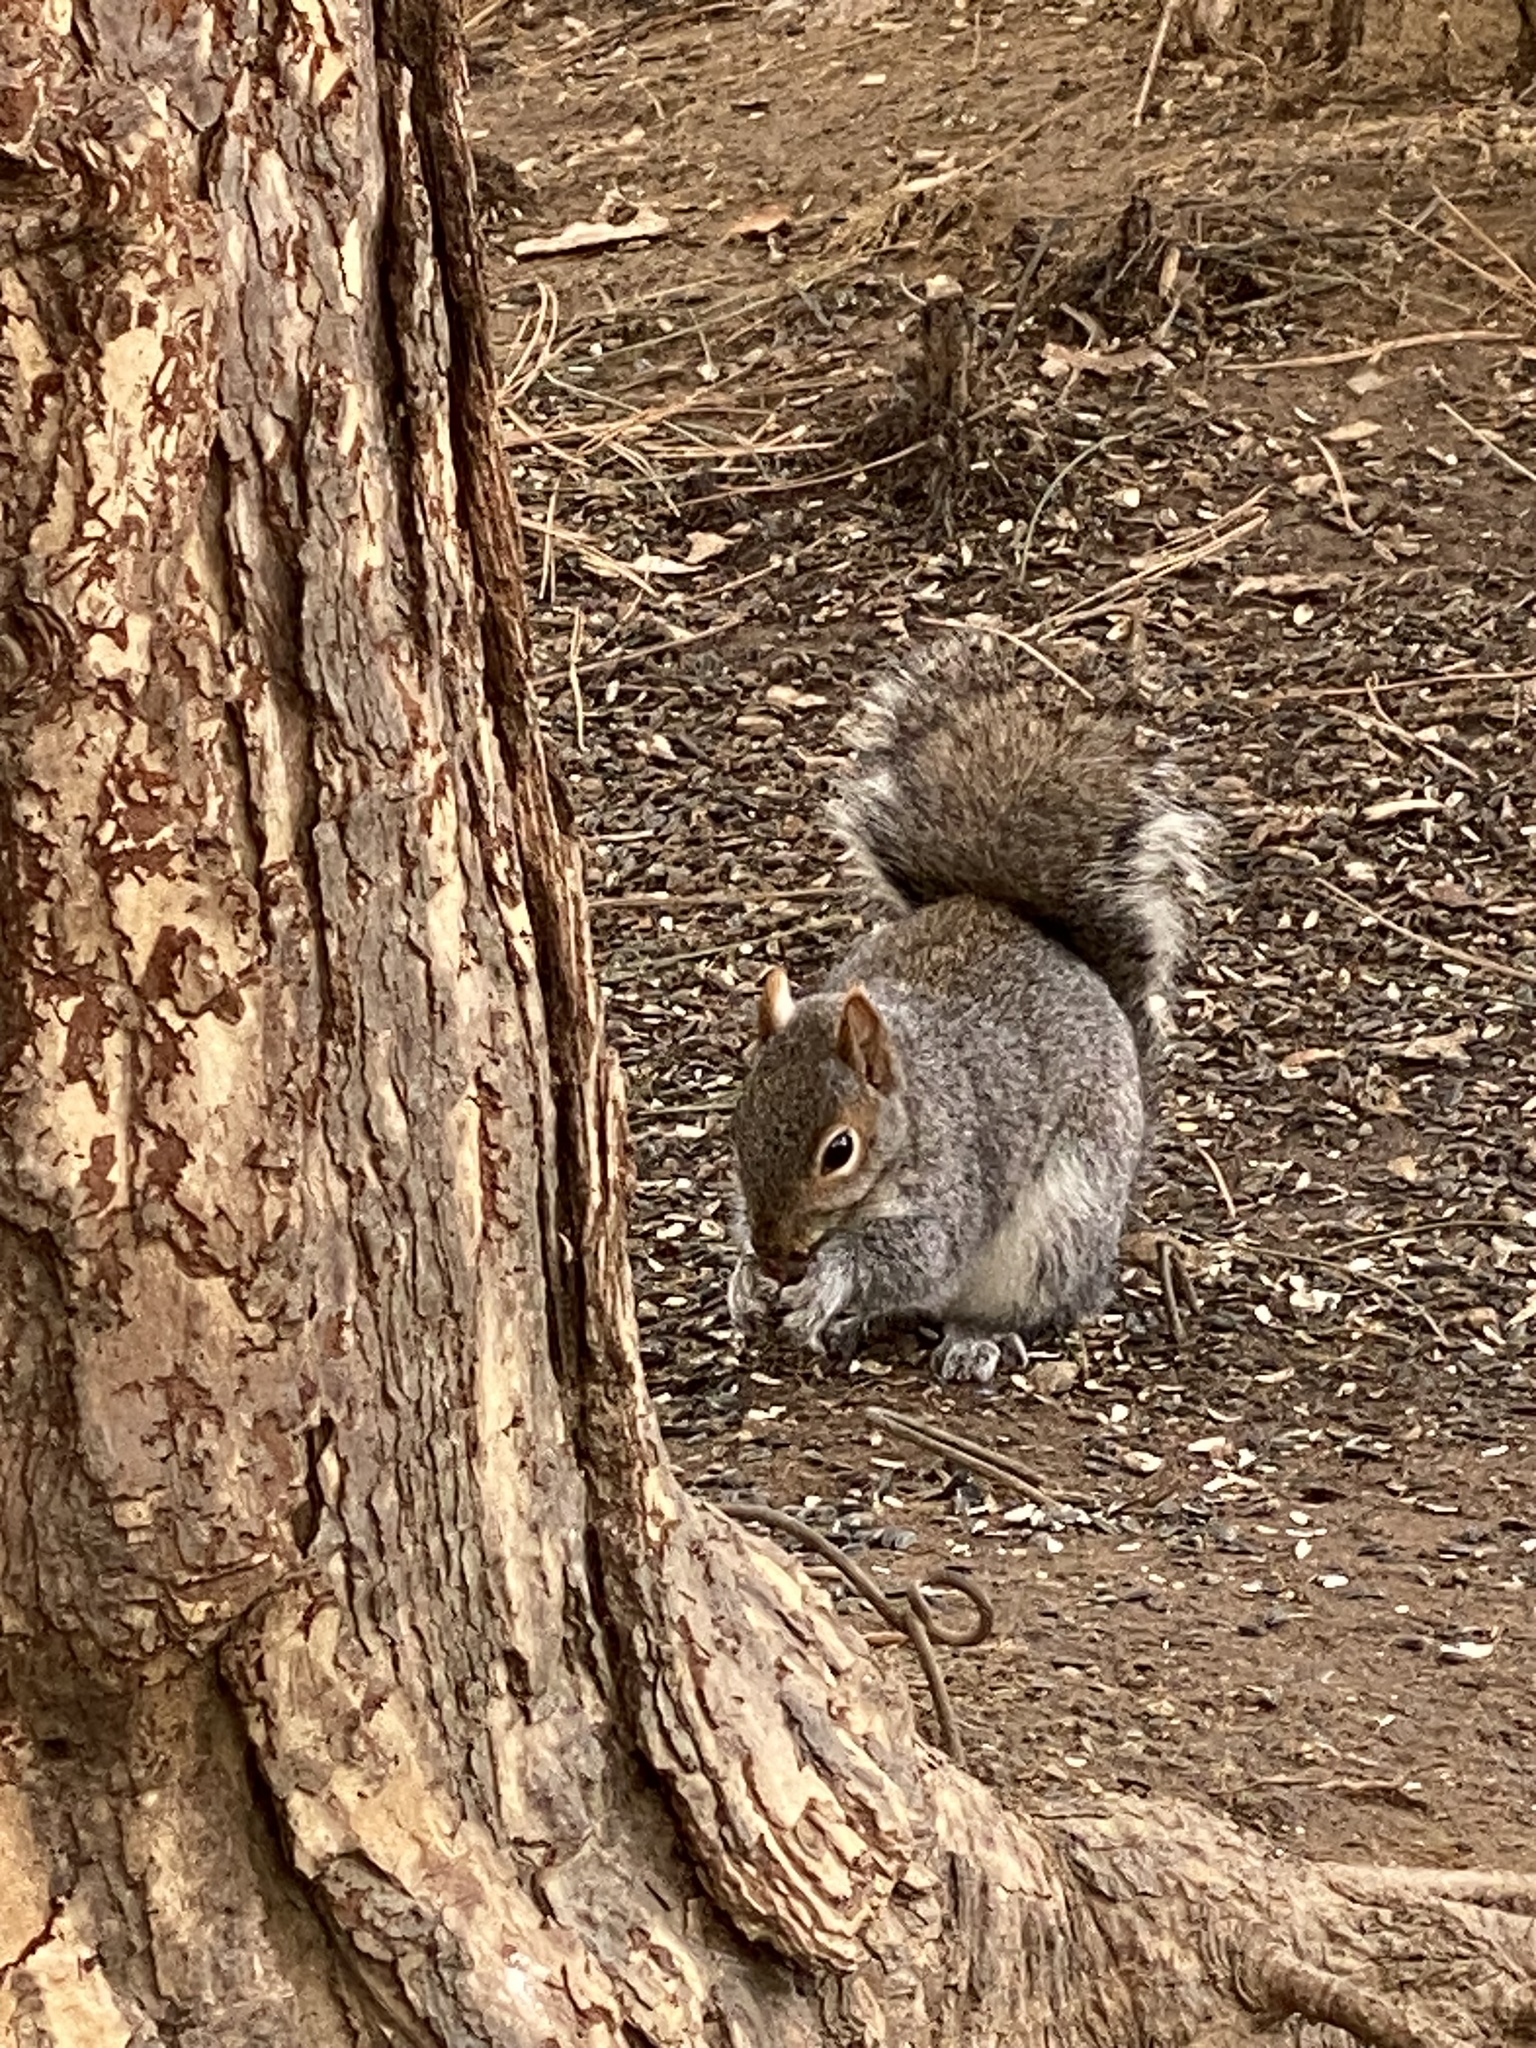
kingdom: Animalia
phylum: Chordata
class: Mammalia
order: Rodentia
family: Sciuridae
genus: Sciurus
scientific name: Sciurus carolinensis
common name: Eastern gray squirrel
